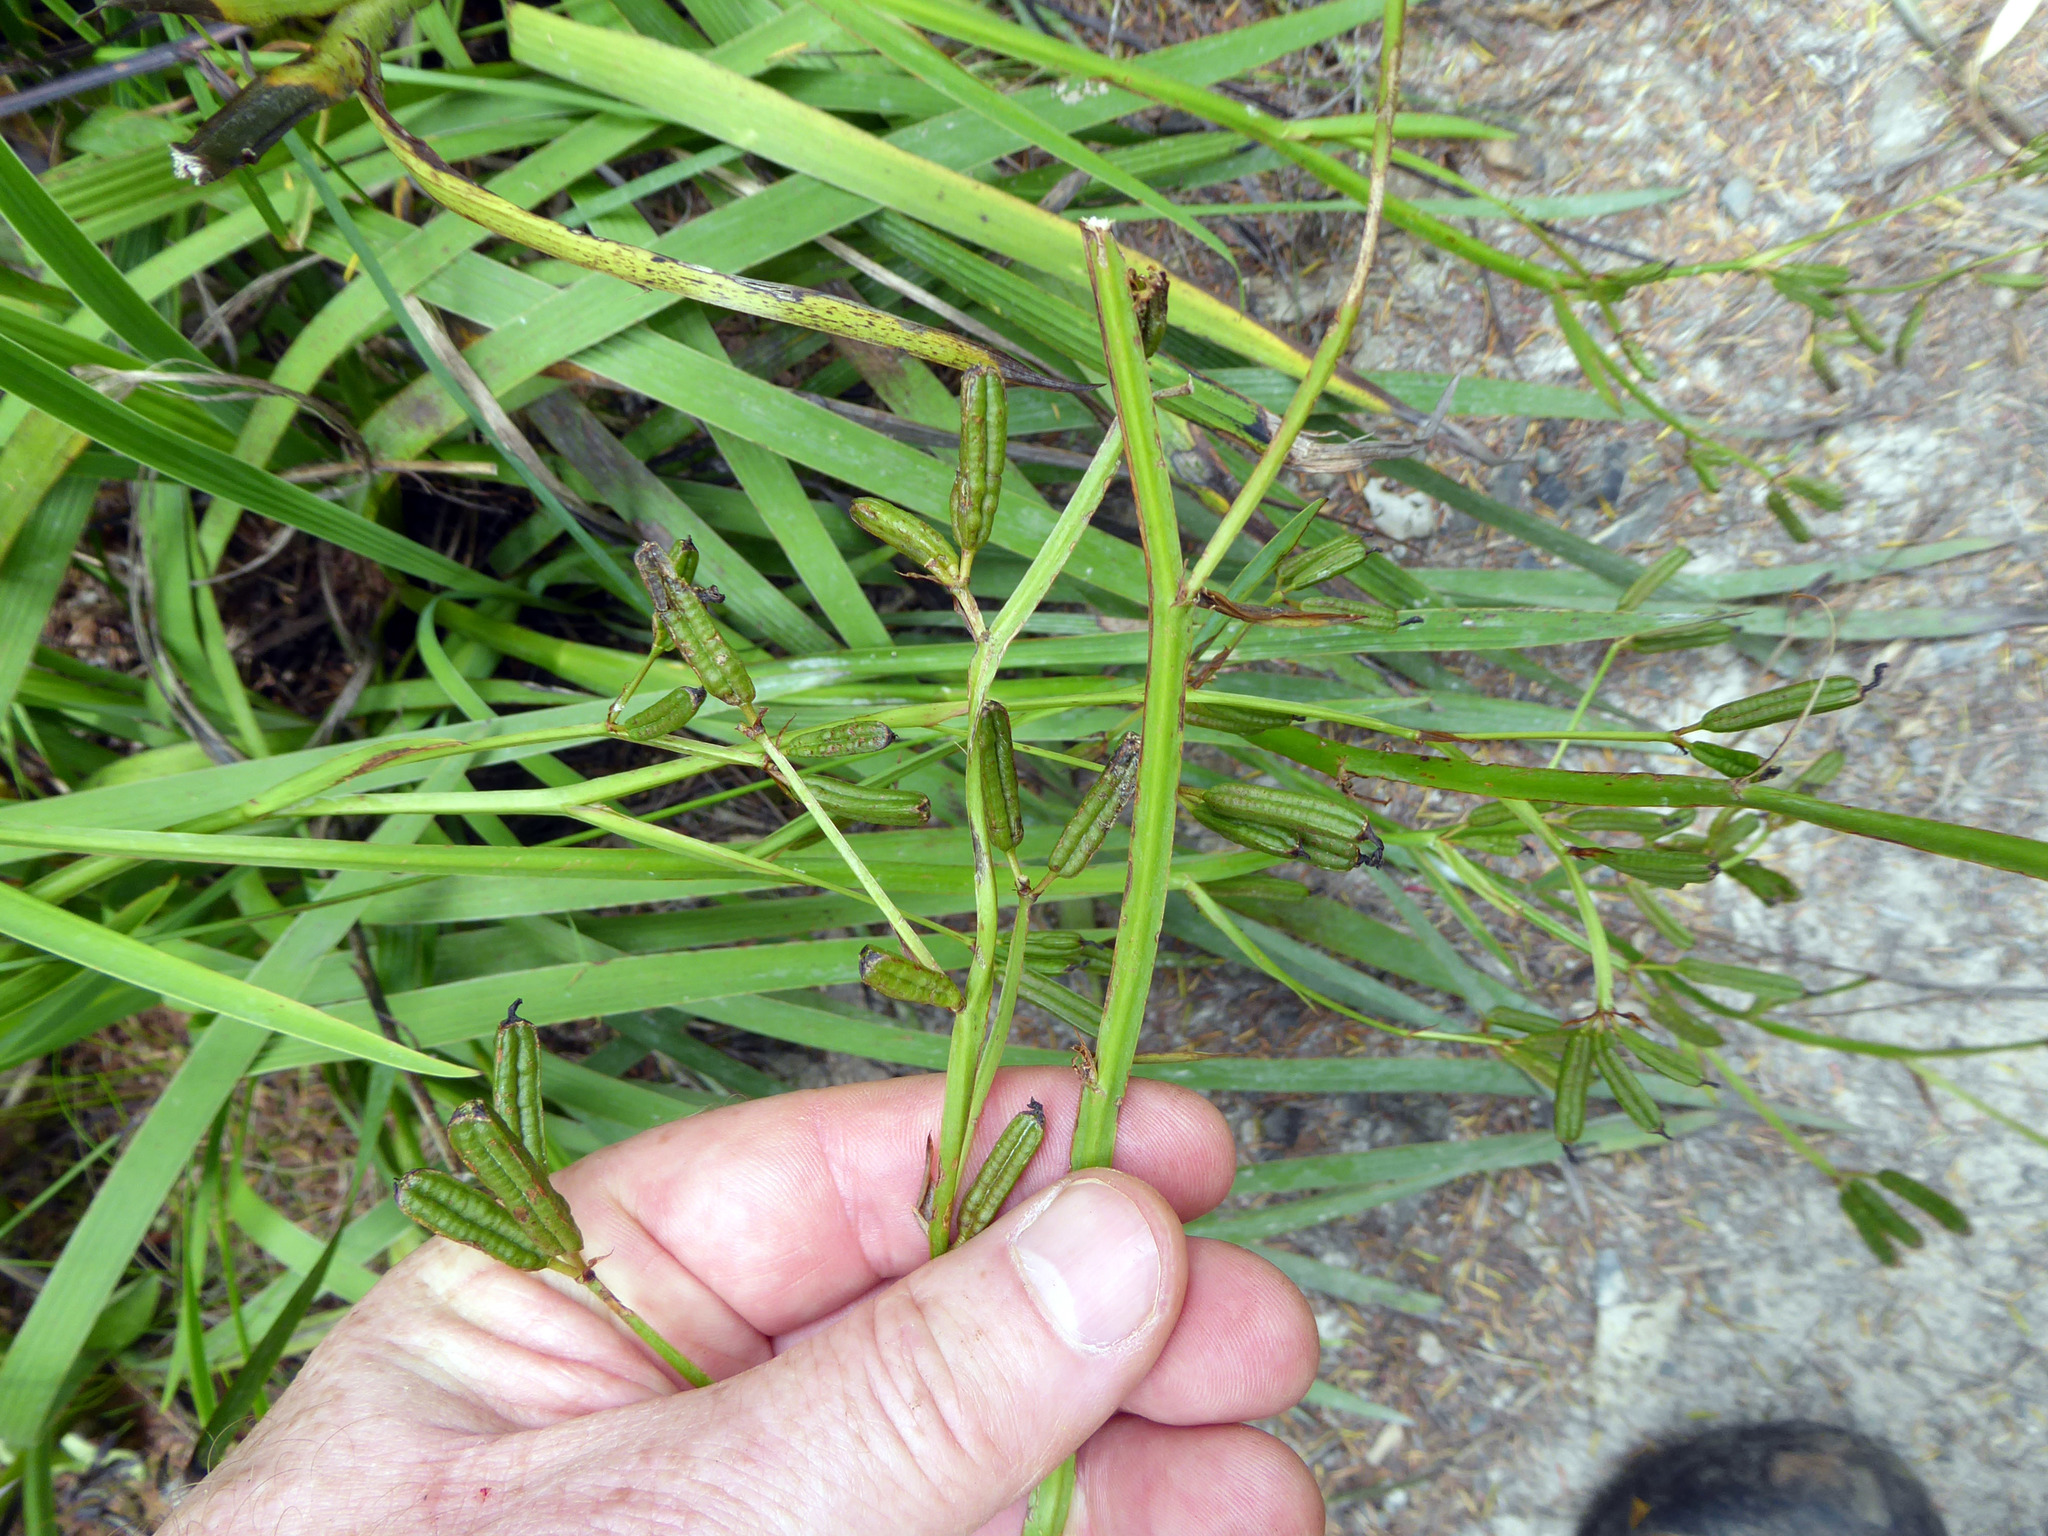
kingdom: Plantae
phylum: Tracheophyta
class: Liliopsida
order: Asparagales
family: Iridaceae
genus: Aristea
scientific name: Aristea ecklonii
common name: Blue corn-lily
